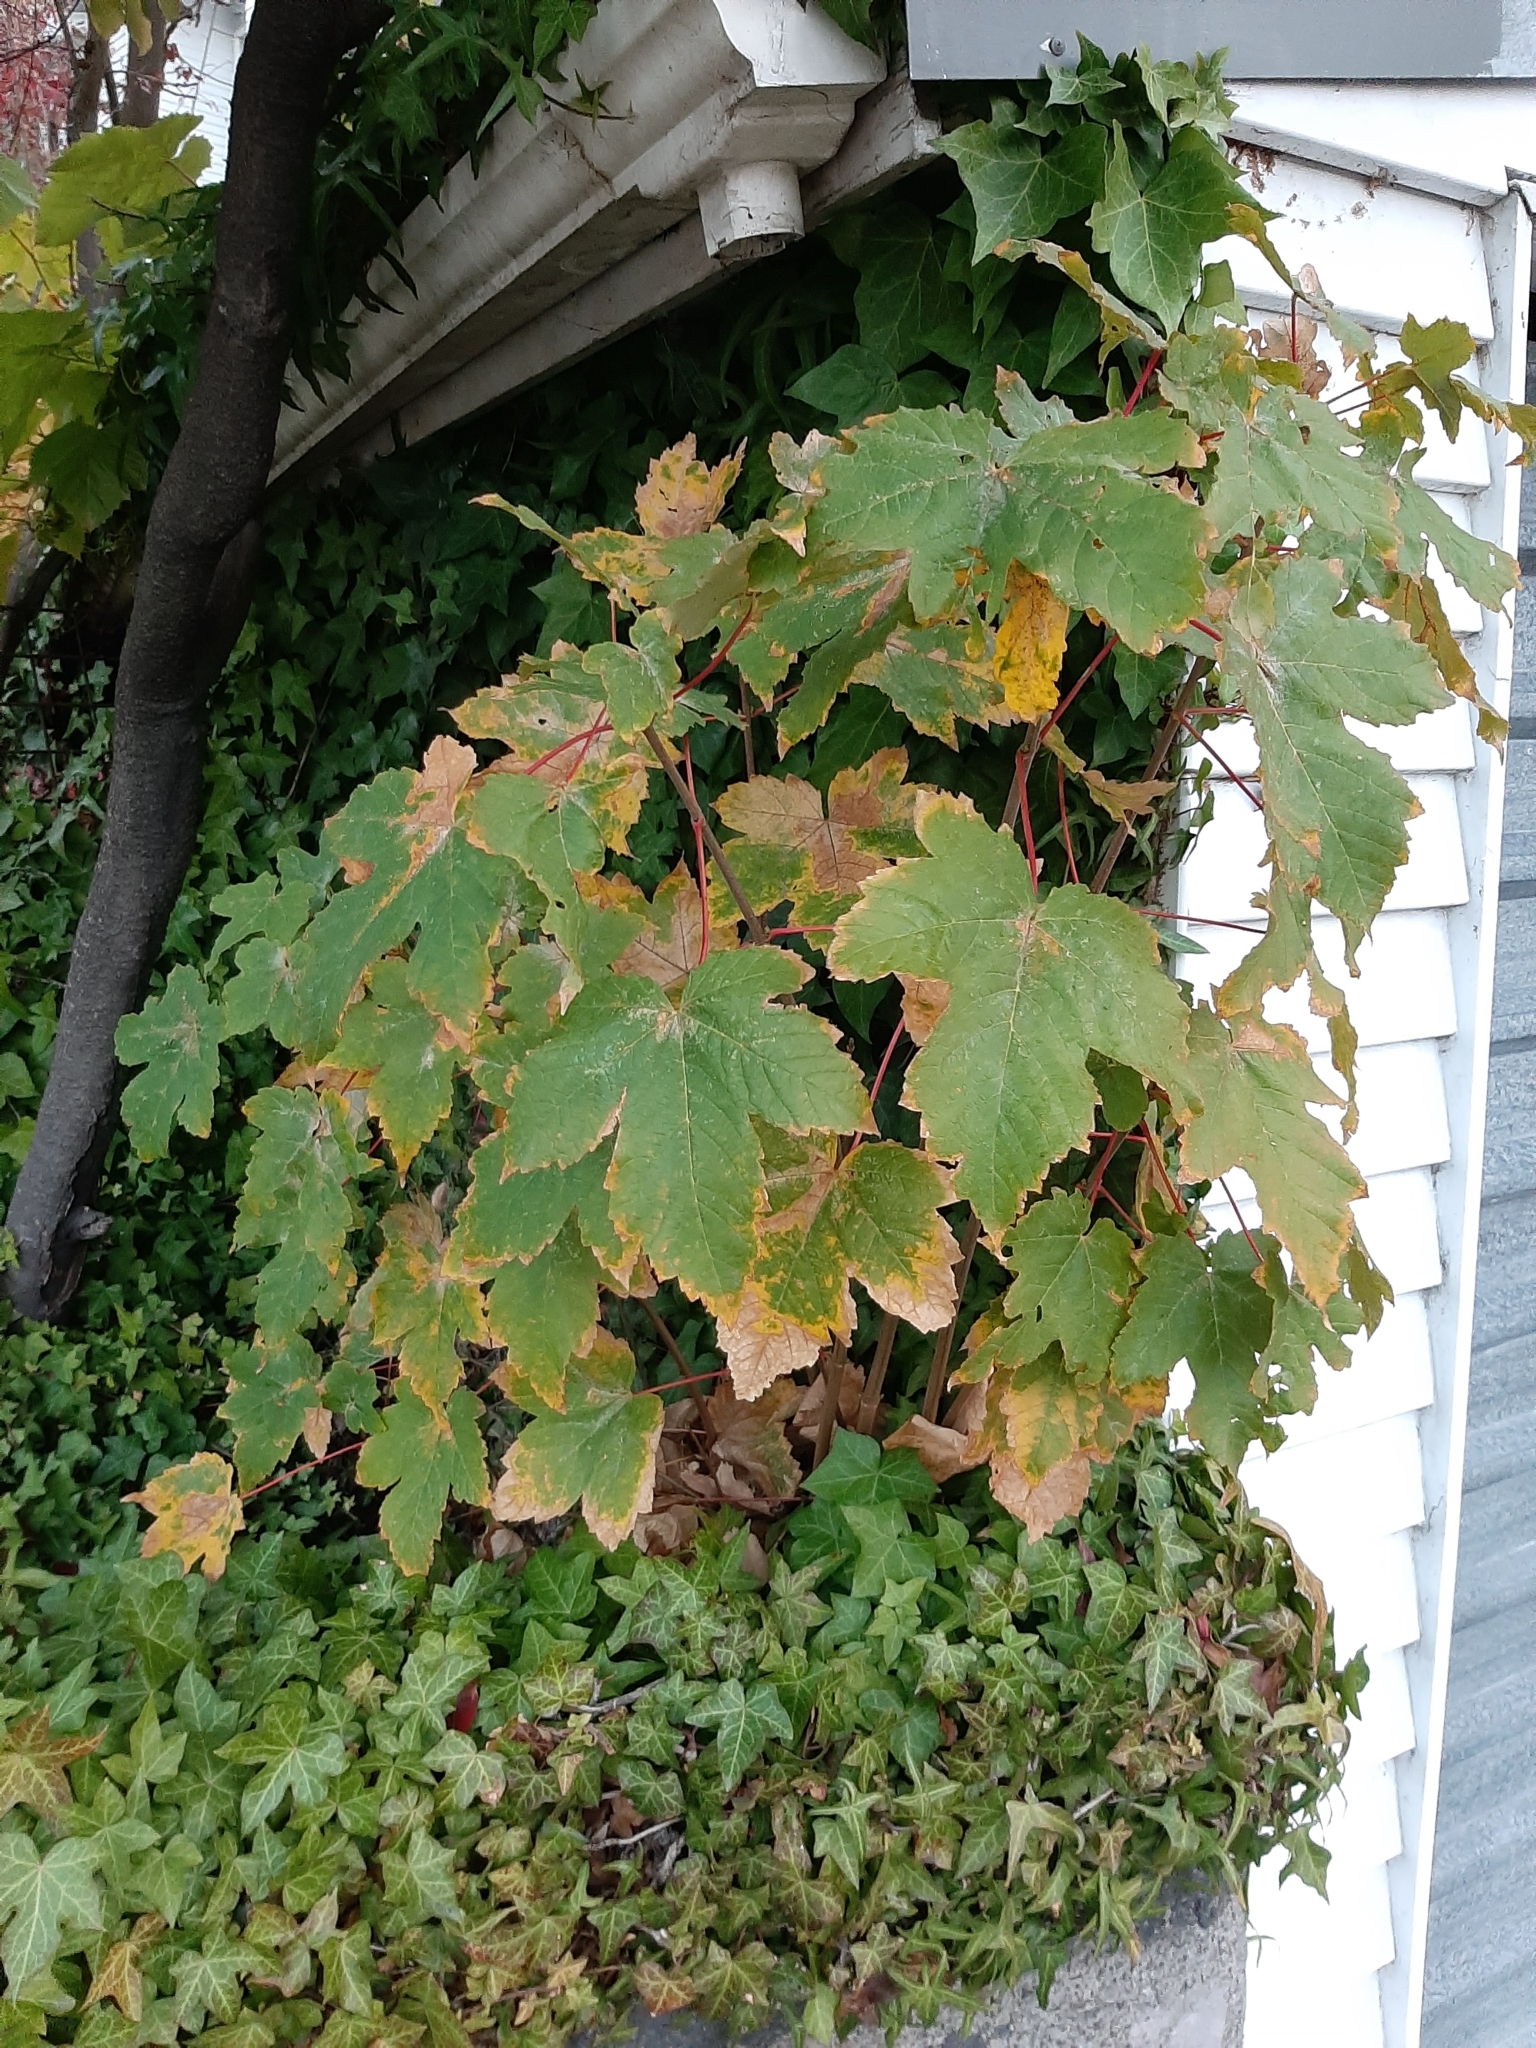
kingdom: Plantae
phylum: Tracheophyta
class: Magnoliopsida
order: Sapindales
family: Sapindaceae
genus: Acer
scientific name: Acer pseudoplatanus
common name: Sycamore
